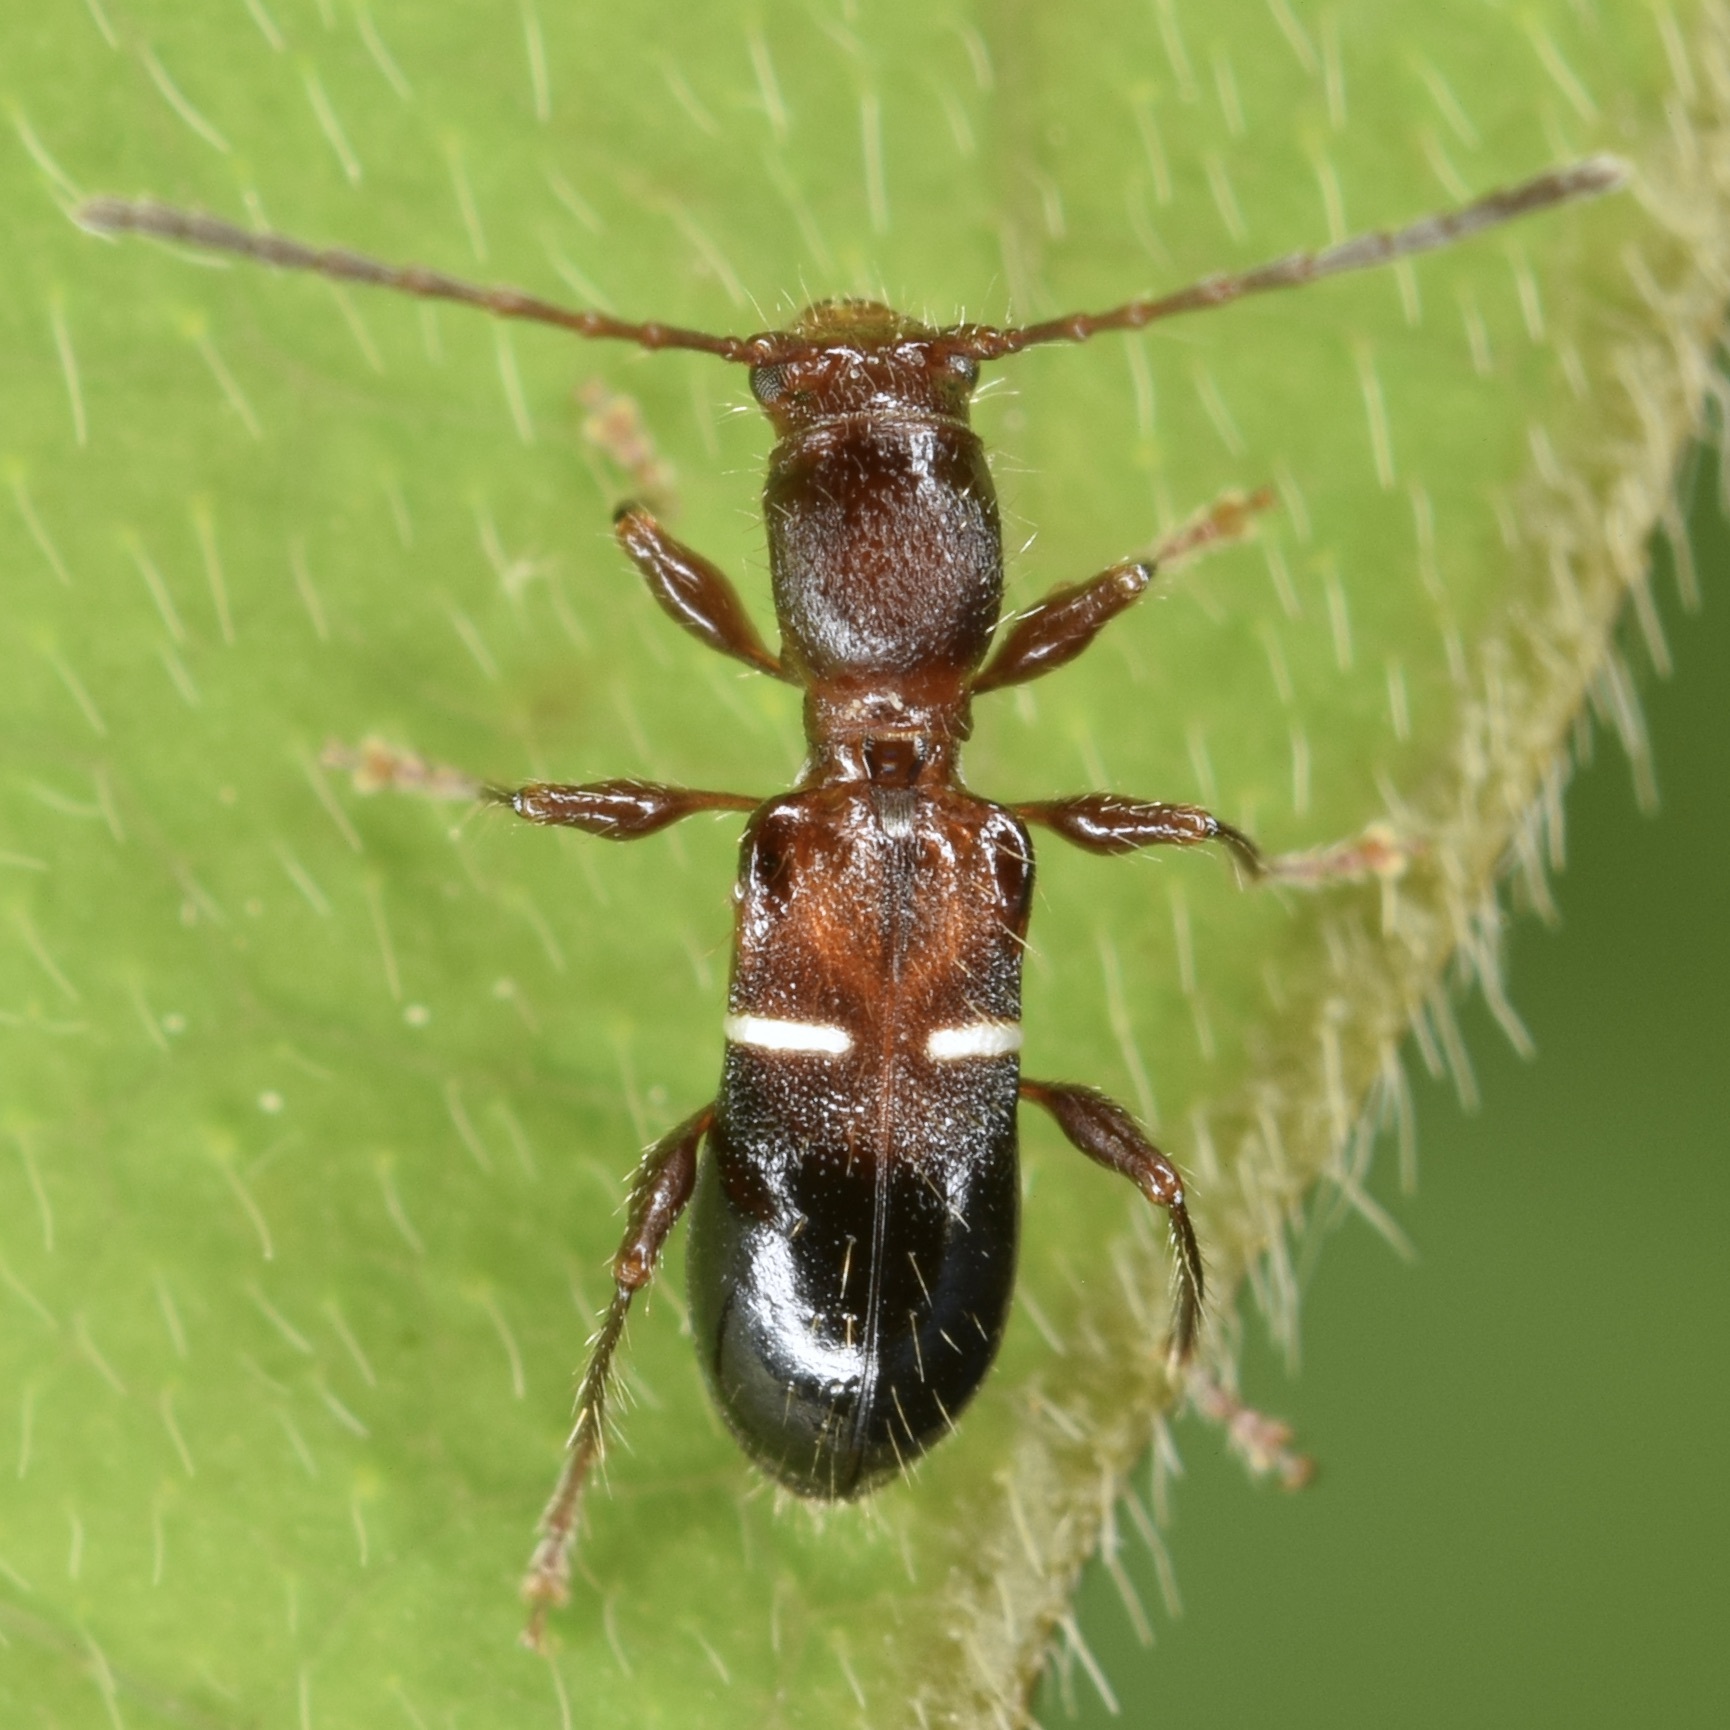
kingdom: Animalia
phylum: Arthropoda
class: Insecta
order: Coleoptera
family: Cerambycidae
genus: Euderces
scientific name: Euderces reichei
